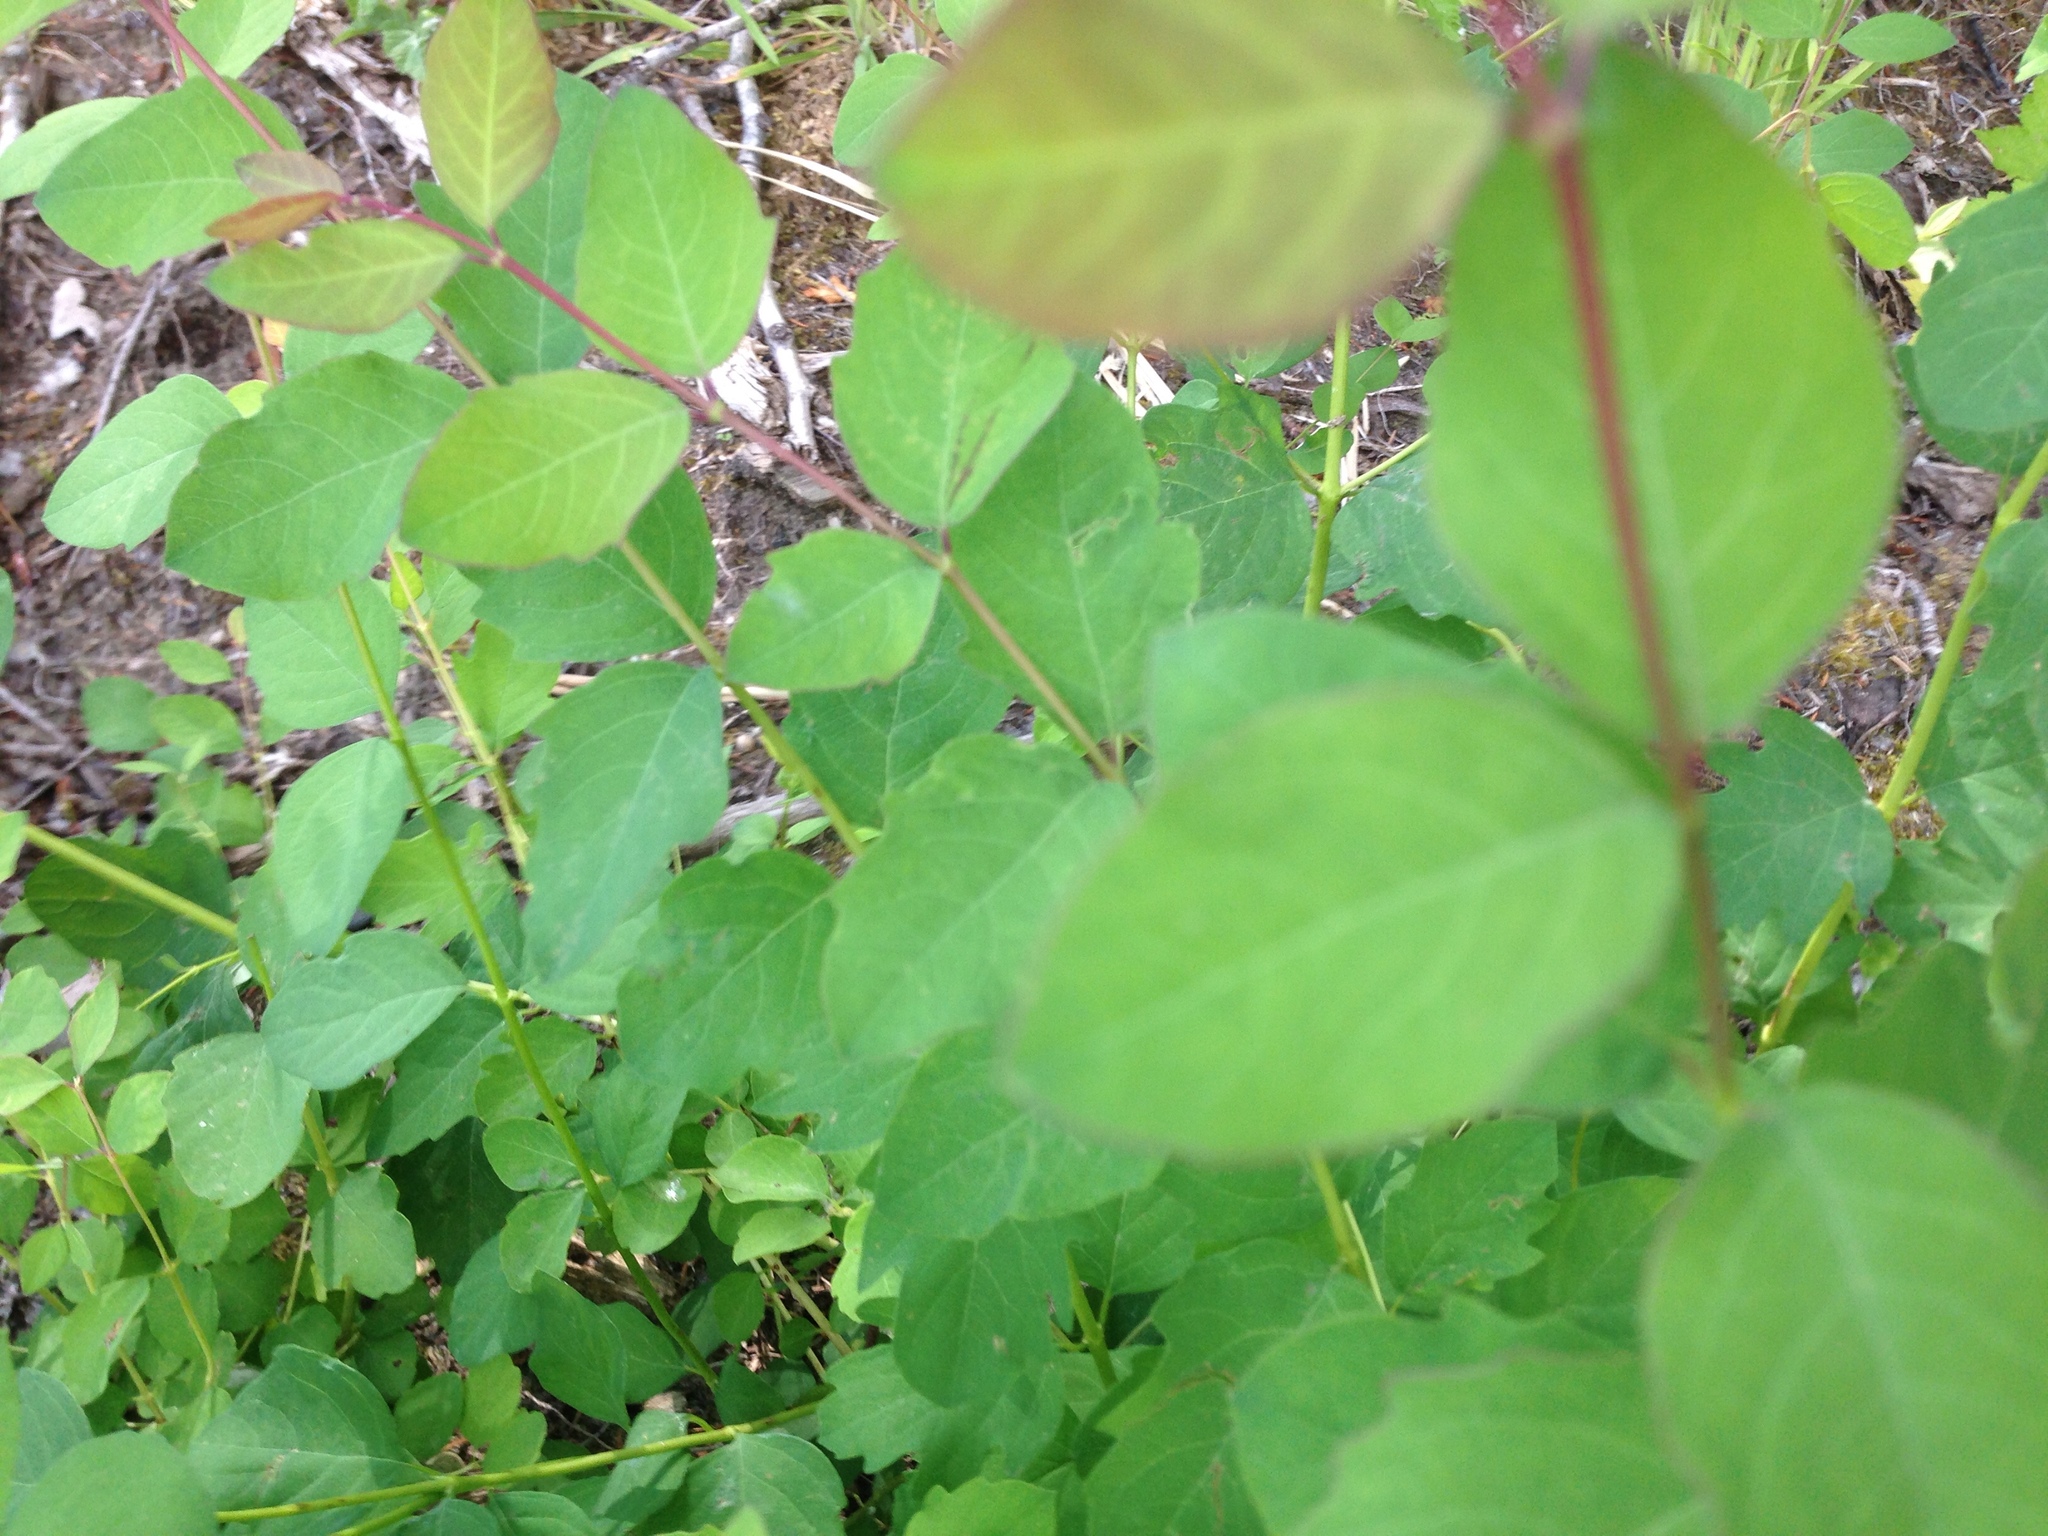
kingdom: Plantae
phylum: Tracheophyta
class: Magnoliopsida
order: Dipsacales
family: Caprifoliaceae
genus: Symphoricarpos
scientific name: Symphoricarpos albus
